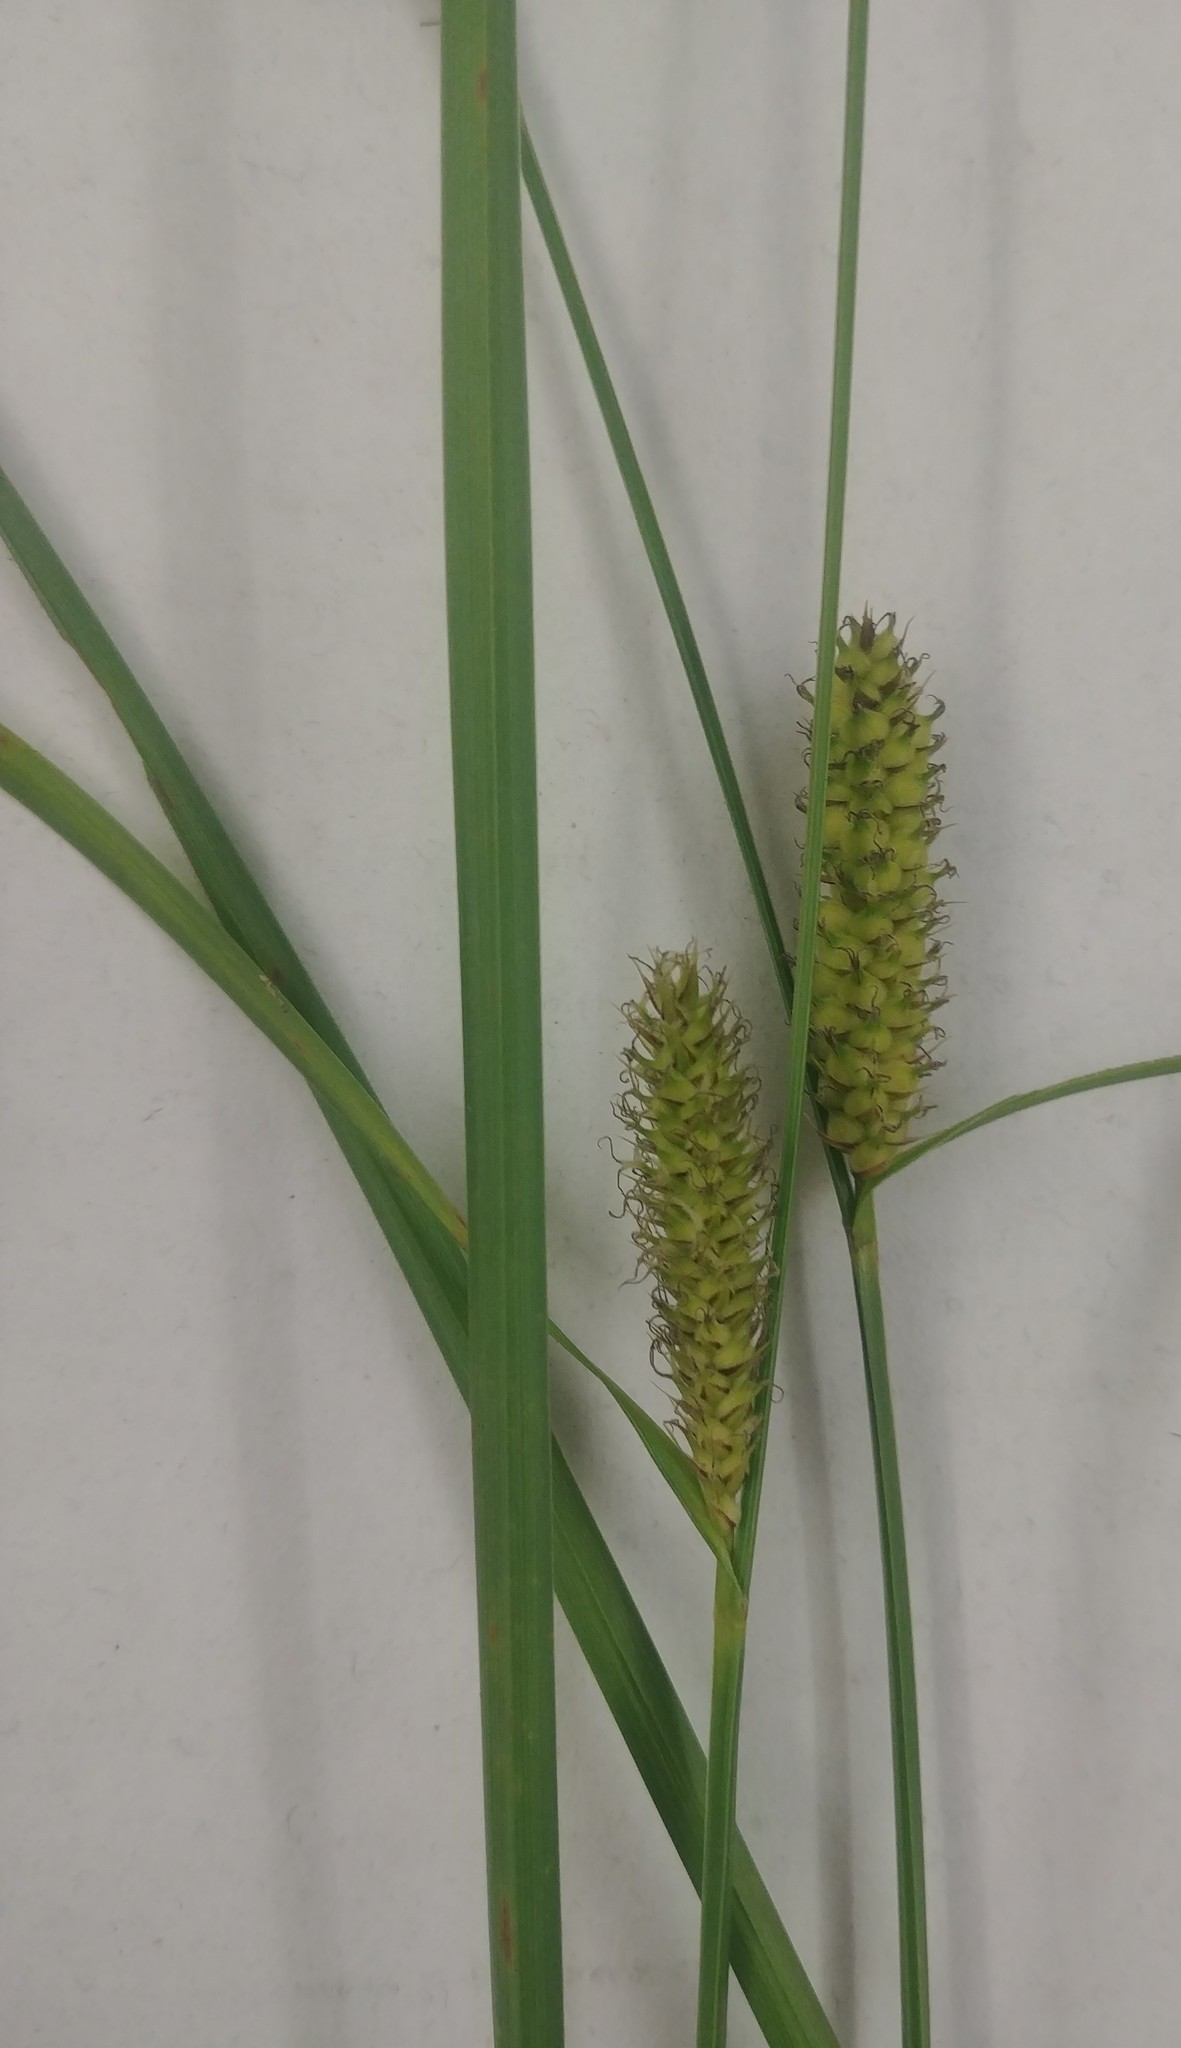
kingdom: Plantae
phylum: Tracheophyta
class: Liliopsida
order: Poales
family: Cyperaceae
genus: Carex
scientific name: Carex pellita
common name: Woolly sedge
